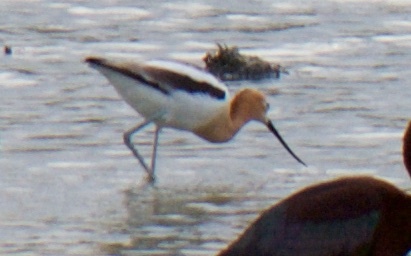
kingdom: Animalia
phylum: Chordata
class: Aves
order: Charadriiformes
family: Recurvirostridae
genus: Recurvirostra
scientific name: Recurvirostra americana
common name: American avocet
